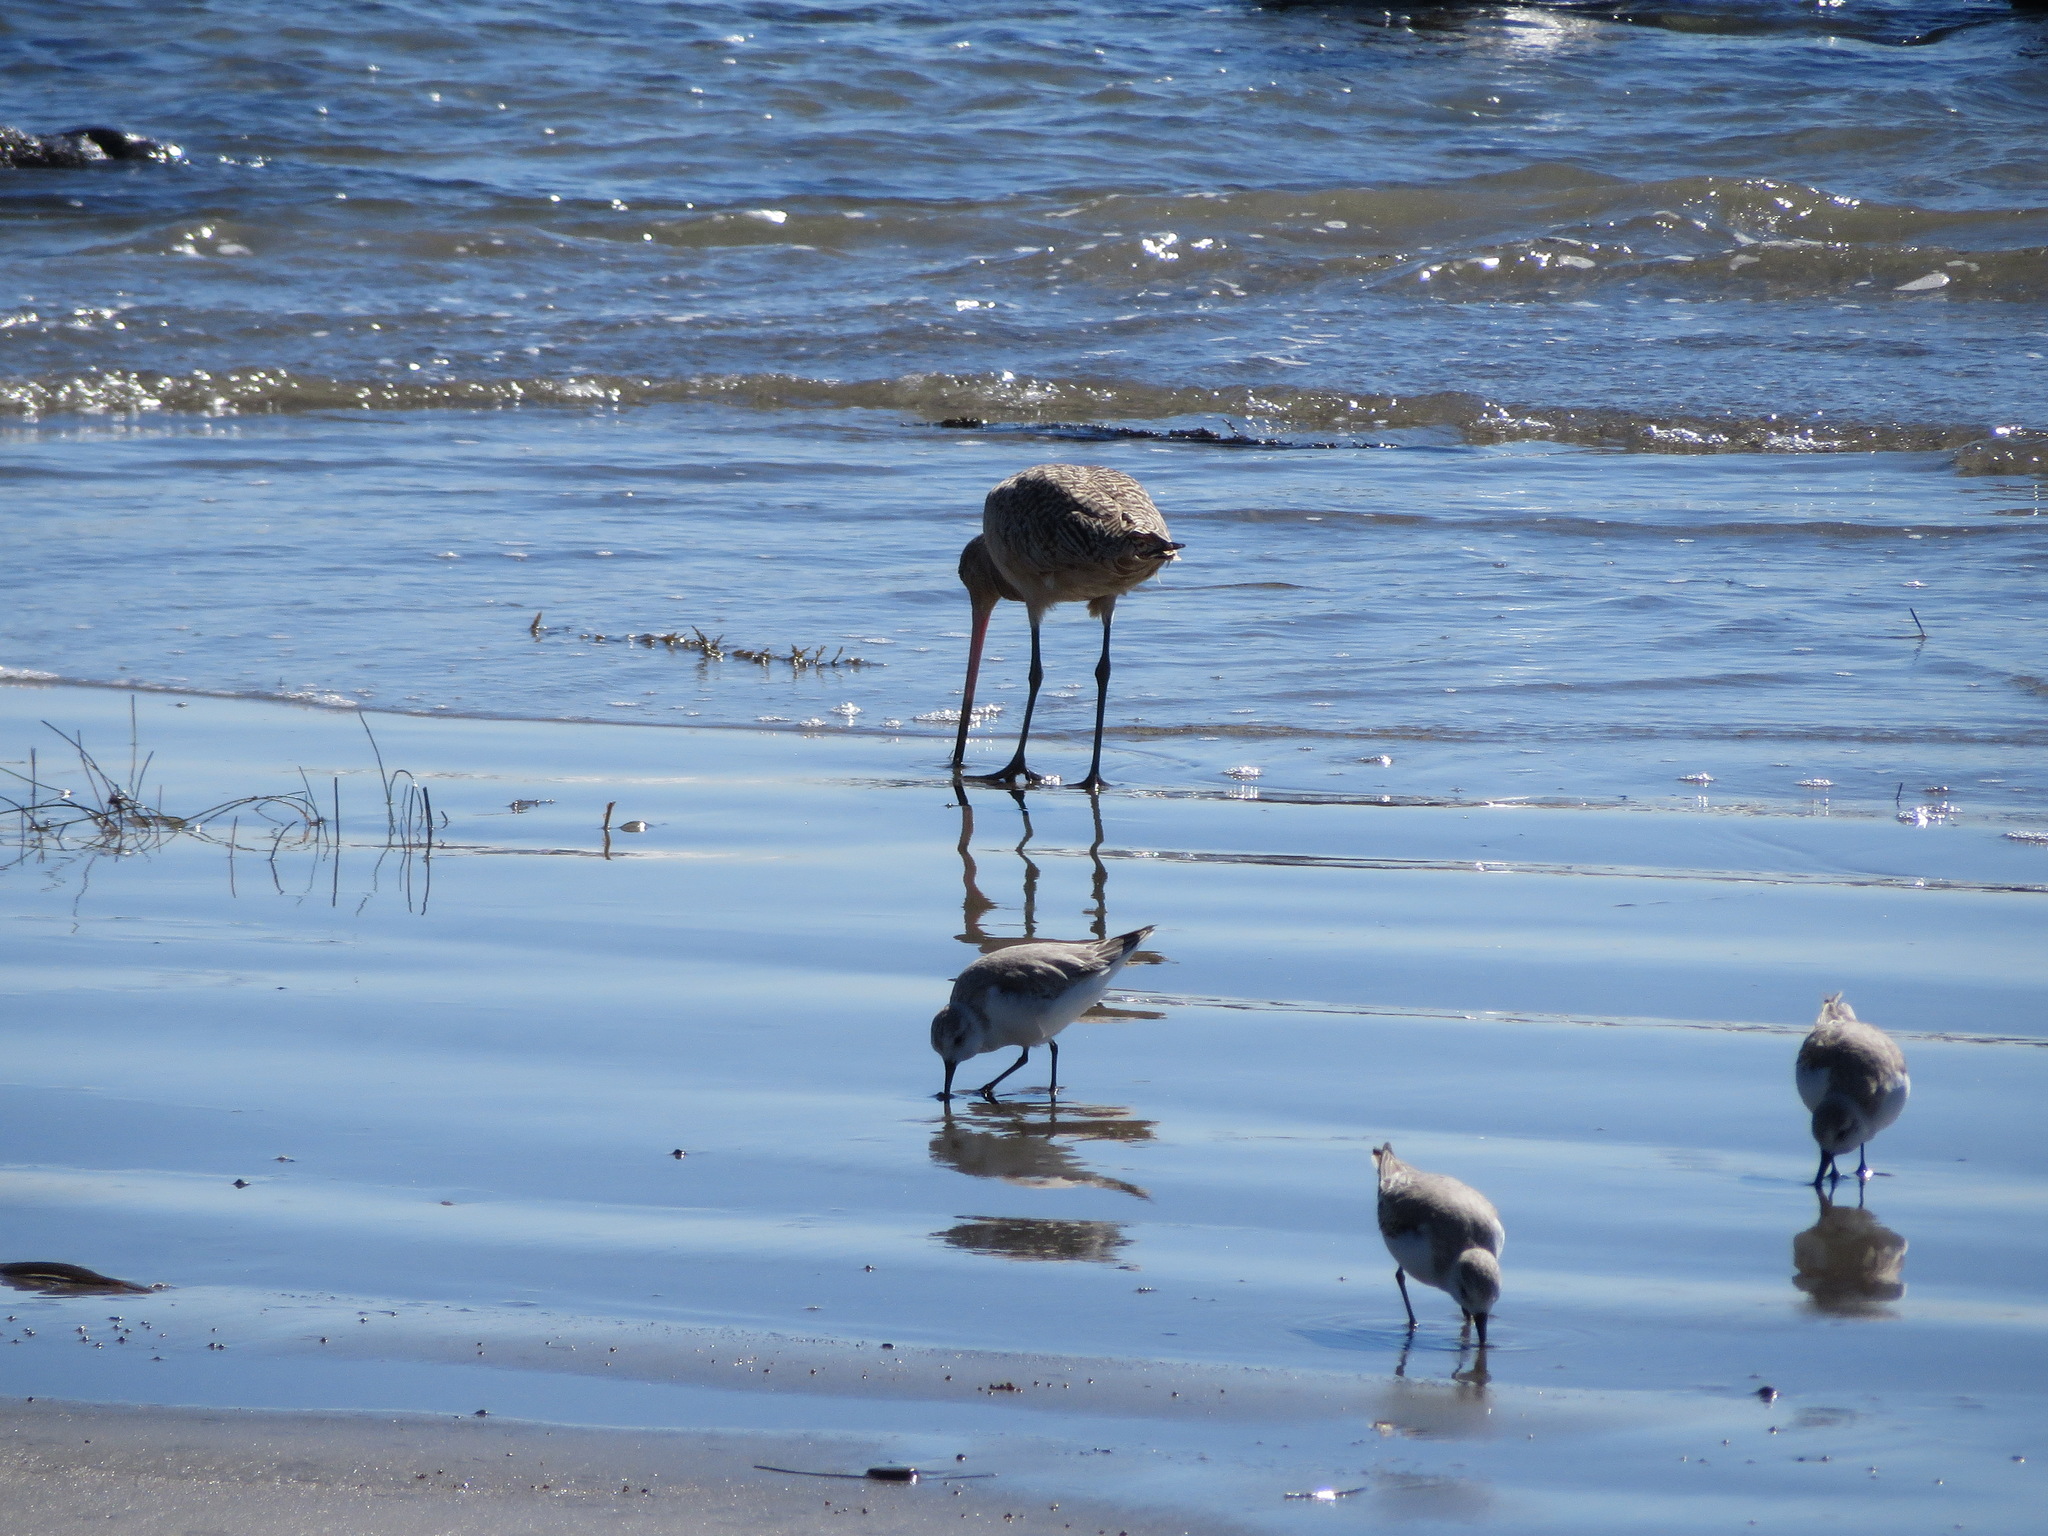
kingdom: Animalia
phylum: Chordata
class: Aves
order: Charadriiformes
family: Scolopacidae
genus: Limosa
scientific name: Limosa fedoa
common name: Marbled godwit
